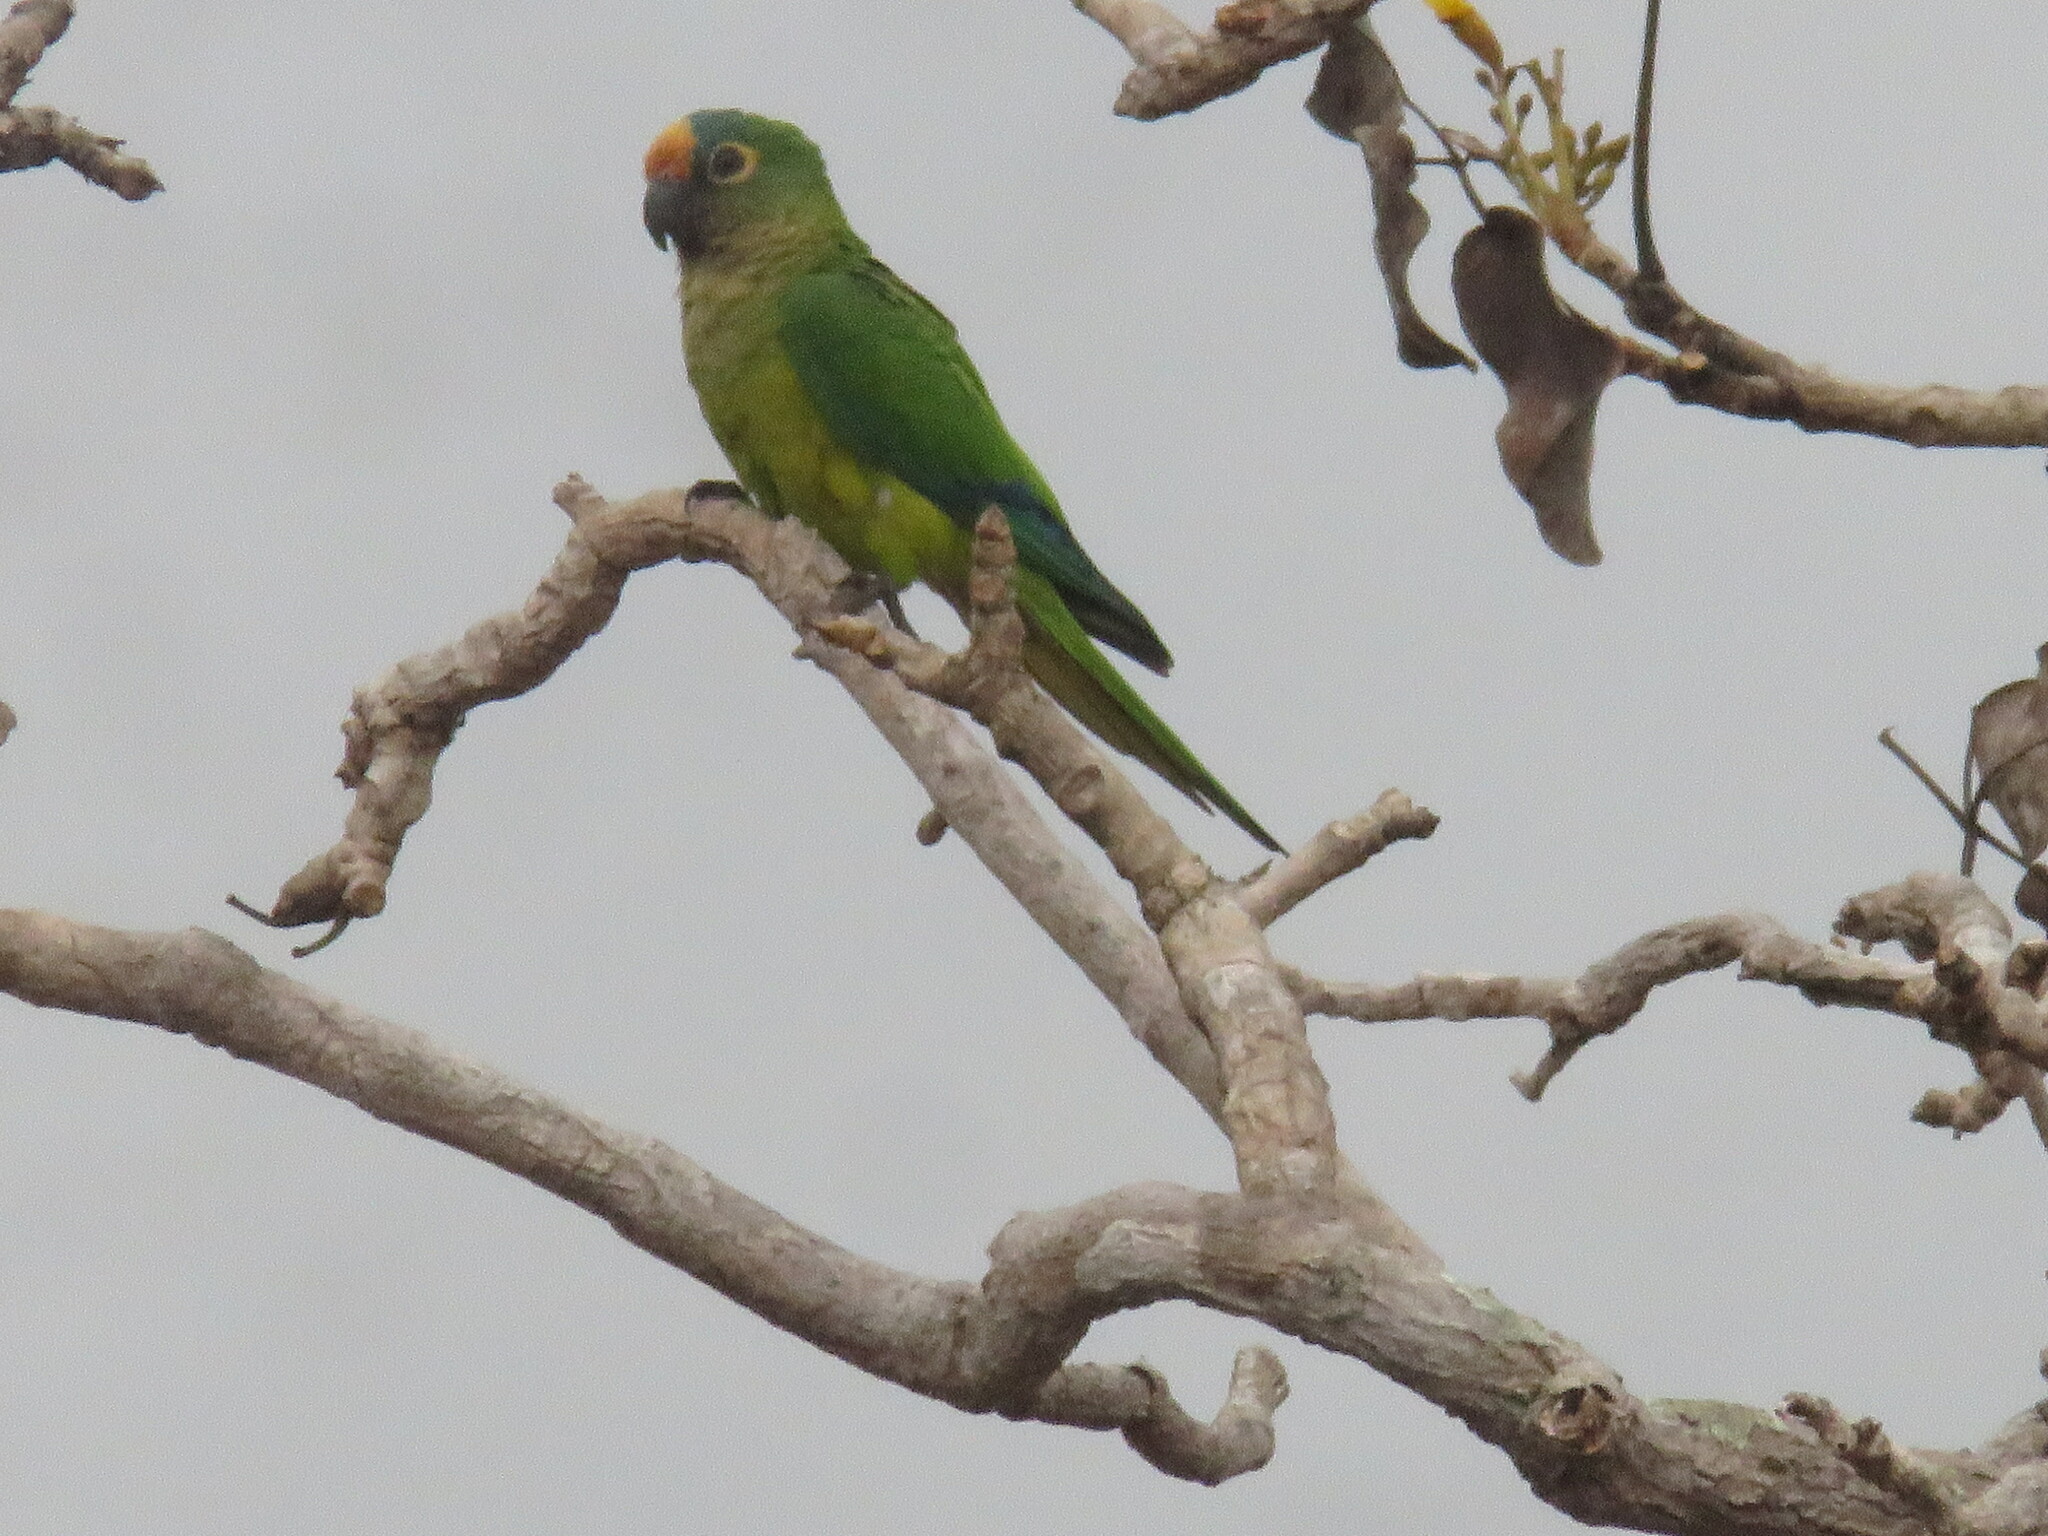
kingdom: Animalia
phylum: Chordata
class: Aves
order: Psittaciformes
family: Psittacidae
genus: Aratinga
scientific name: Aratinga aurea
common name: Peach-fronted parakeet
